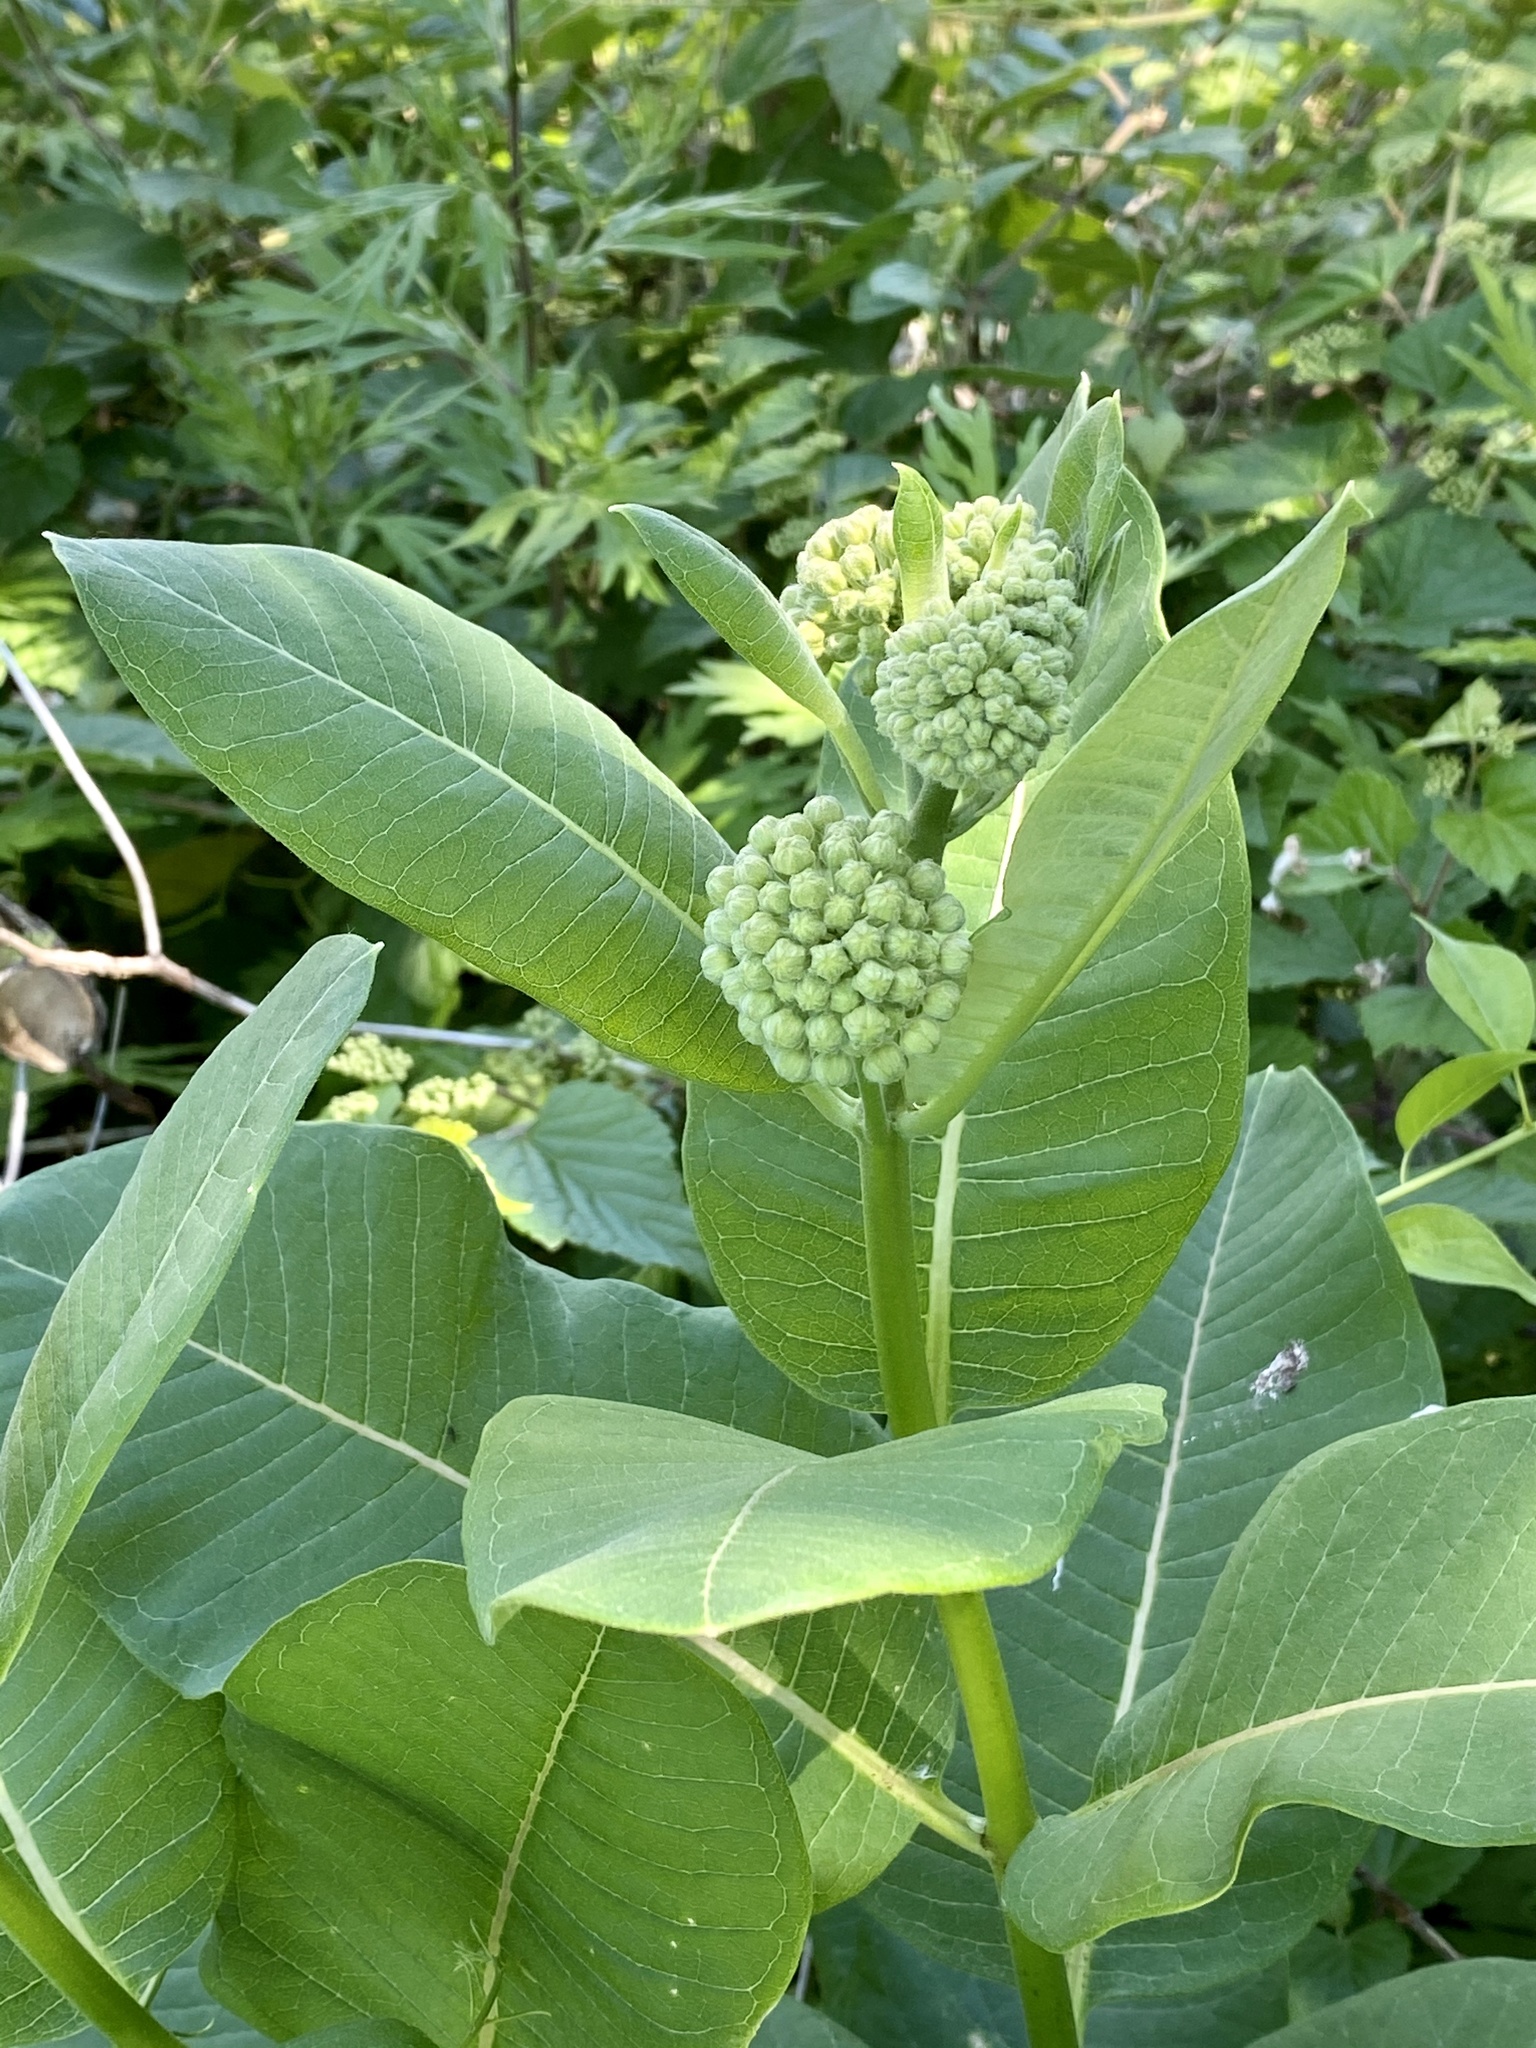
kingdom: Plantae
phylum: Tracheophyta
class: Magnoliopsida
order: Gentianales
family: Apocynaceae
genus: Asclepias
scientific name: Asclepias syriaca
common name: Common milkweed
